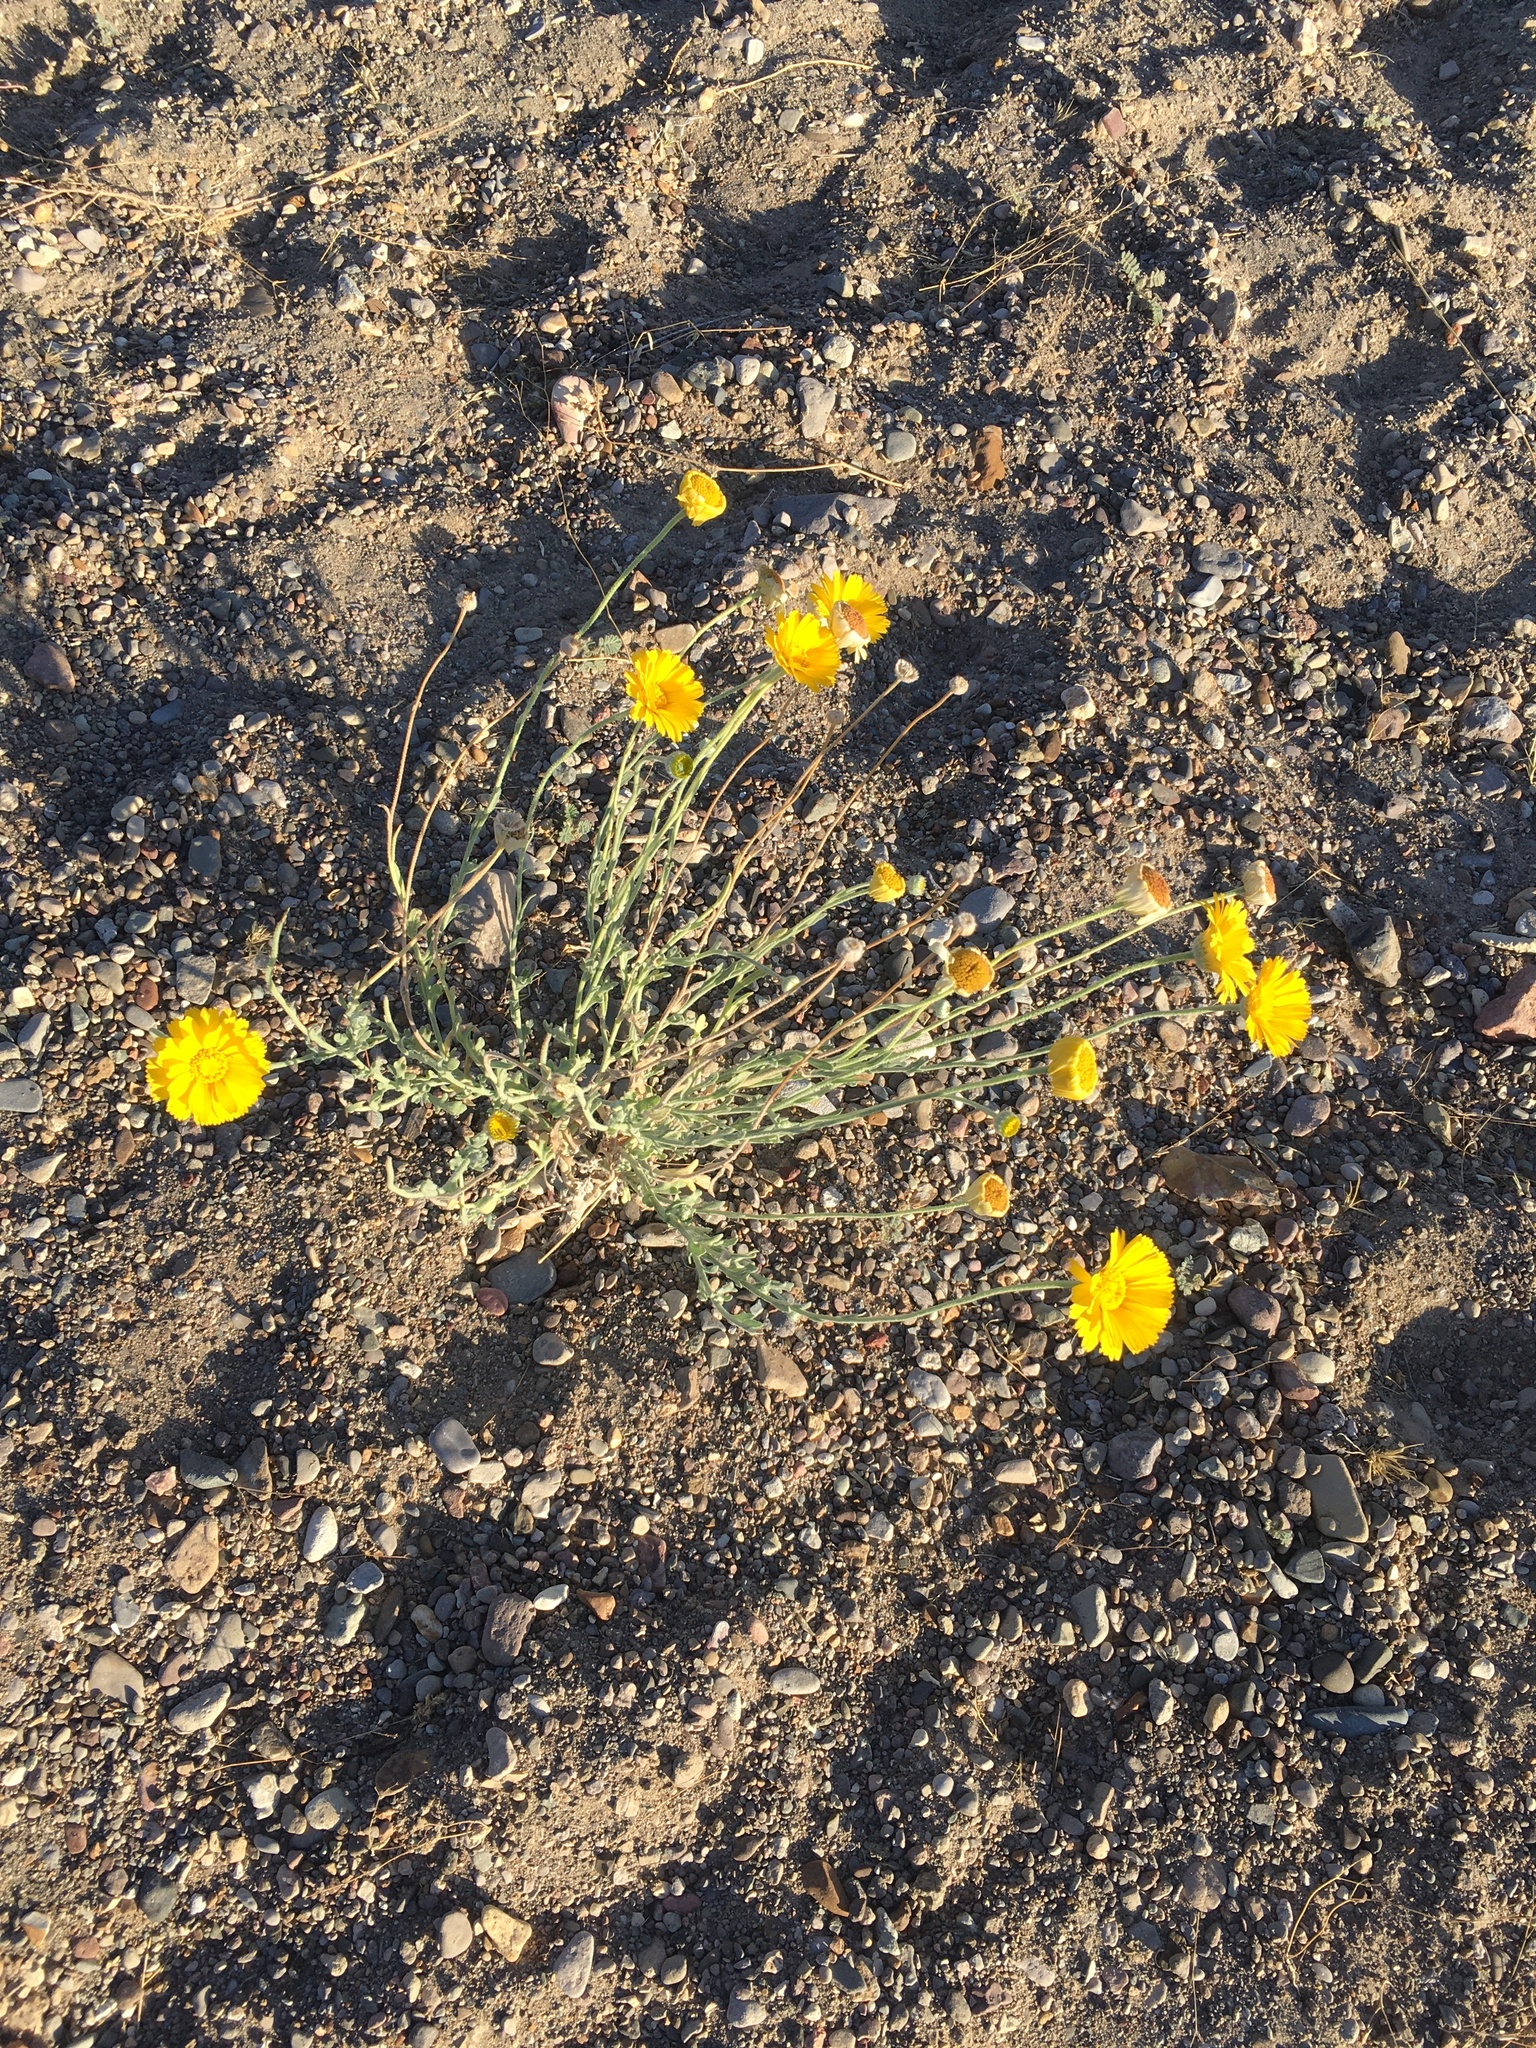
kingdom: Plantae
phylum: Tracheophyta
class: Magnoliopsida
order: Asterales
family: Asteraceae
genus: Baileya
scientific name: Baileya multiradiata
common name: Desert-marigold
